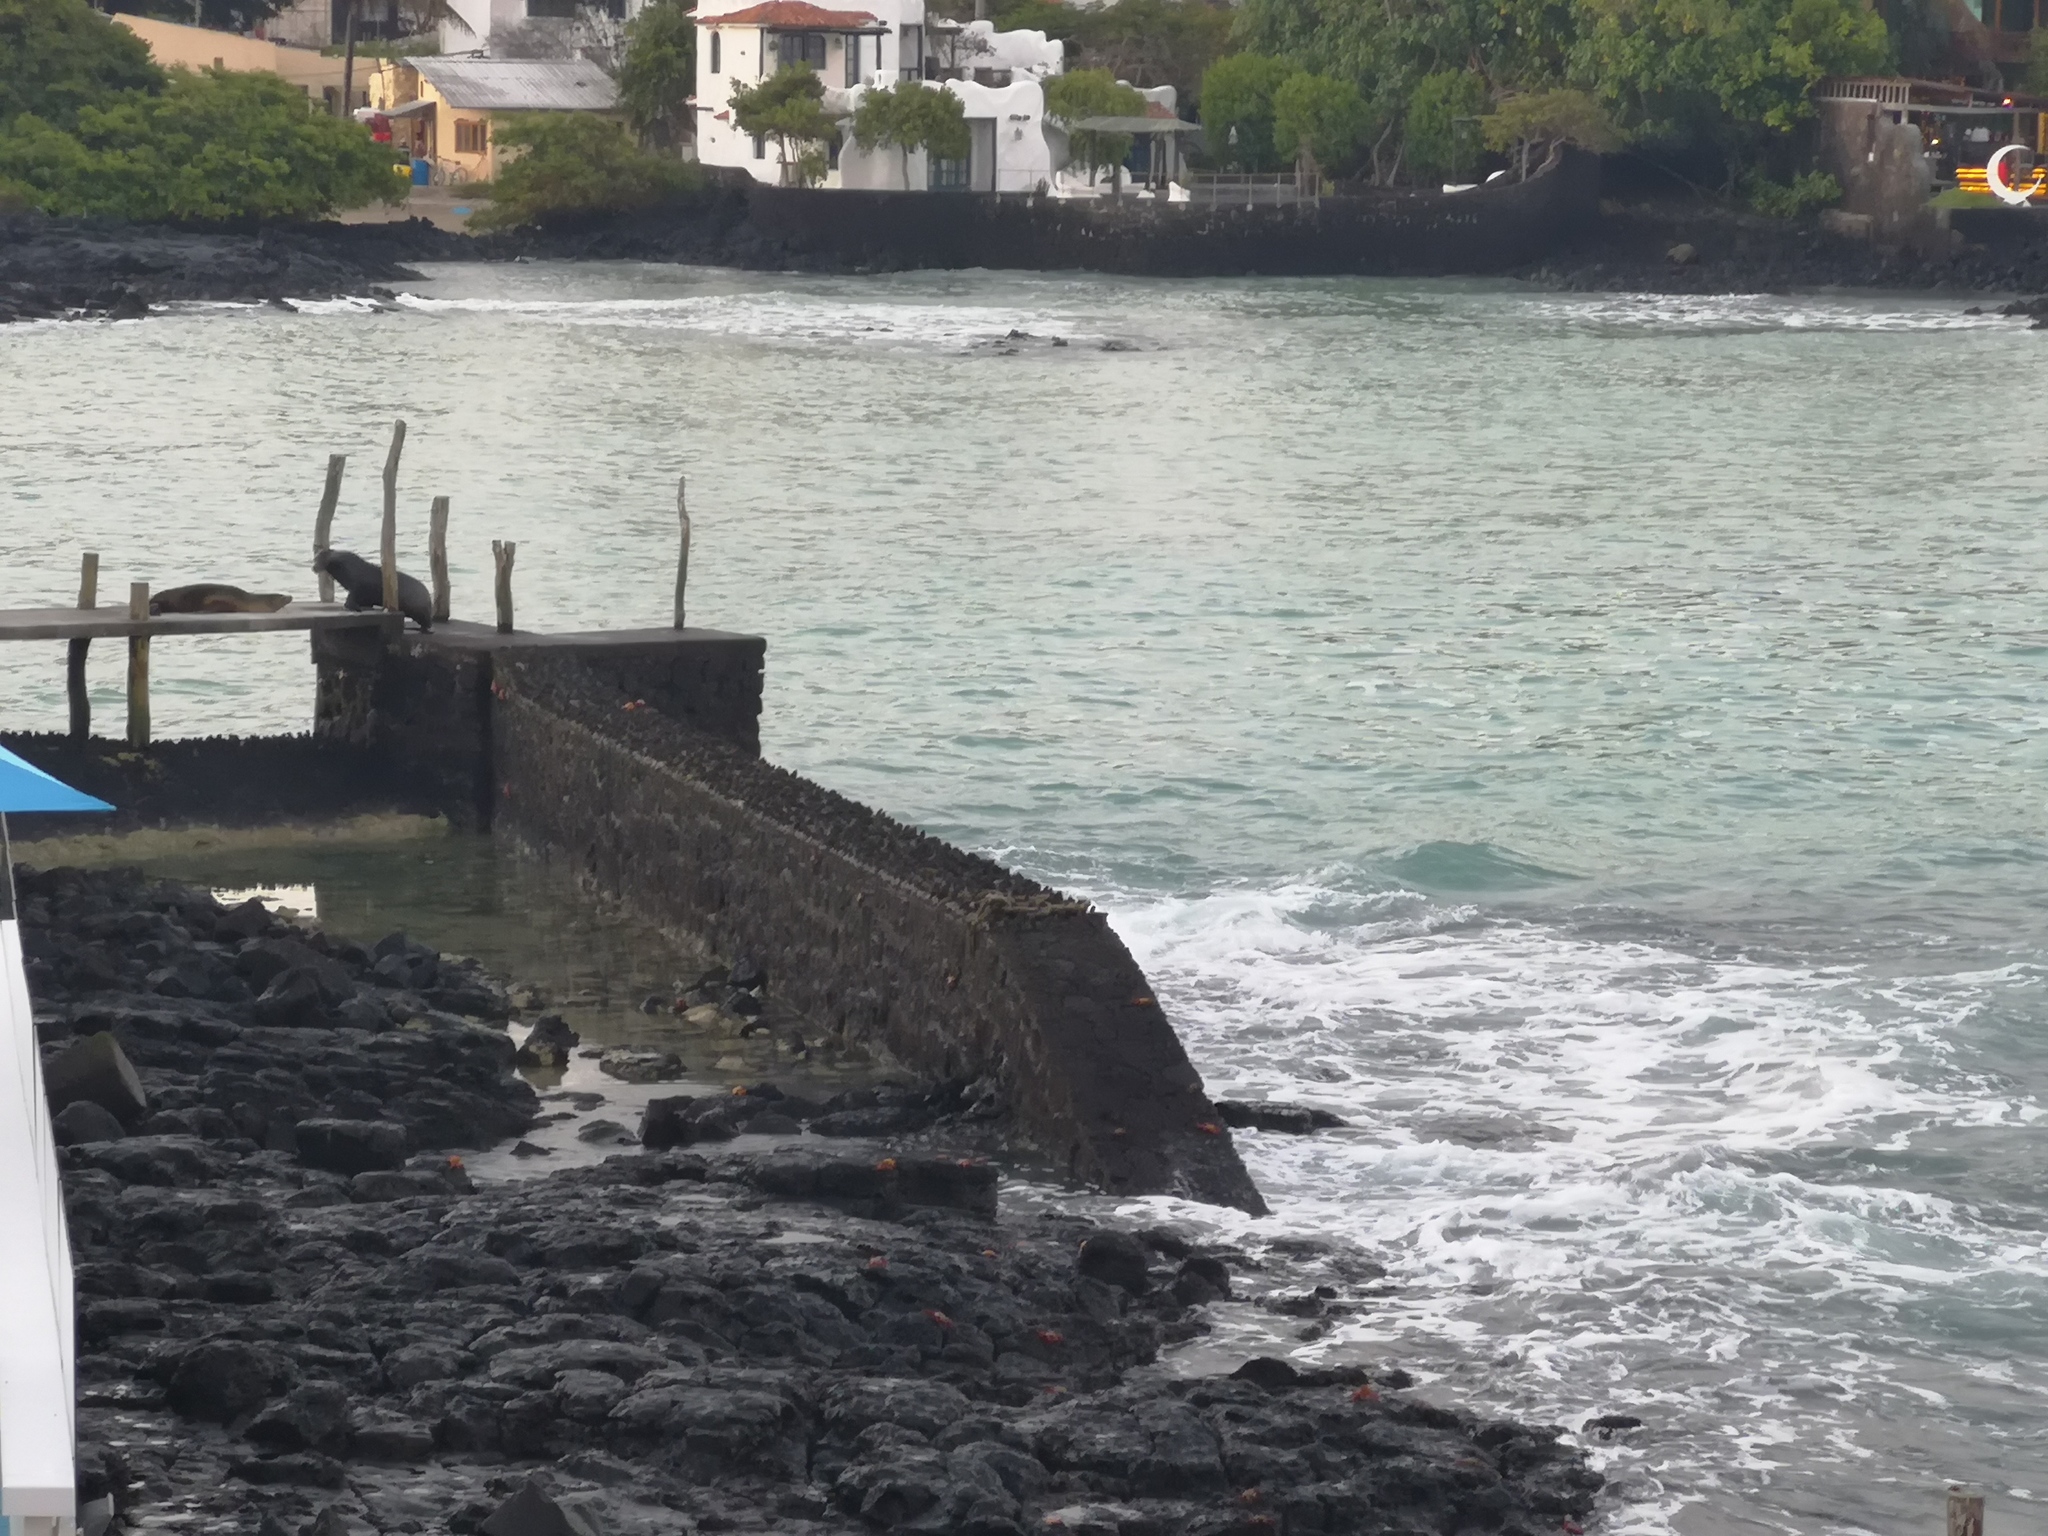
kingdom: Animalia
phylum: Chordata
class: Mammalia
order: Carnivora
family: Otariidae
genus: Zalophus
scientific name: Zalophus wollebaeki
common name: Galapagos sea lion
